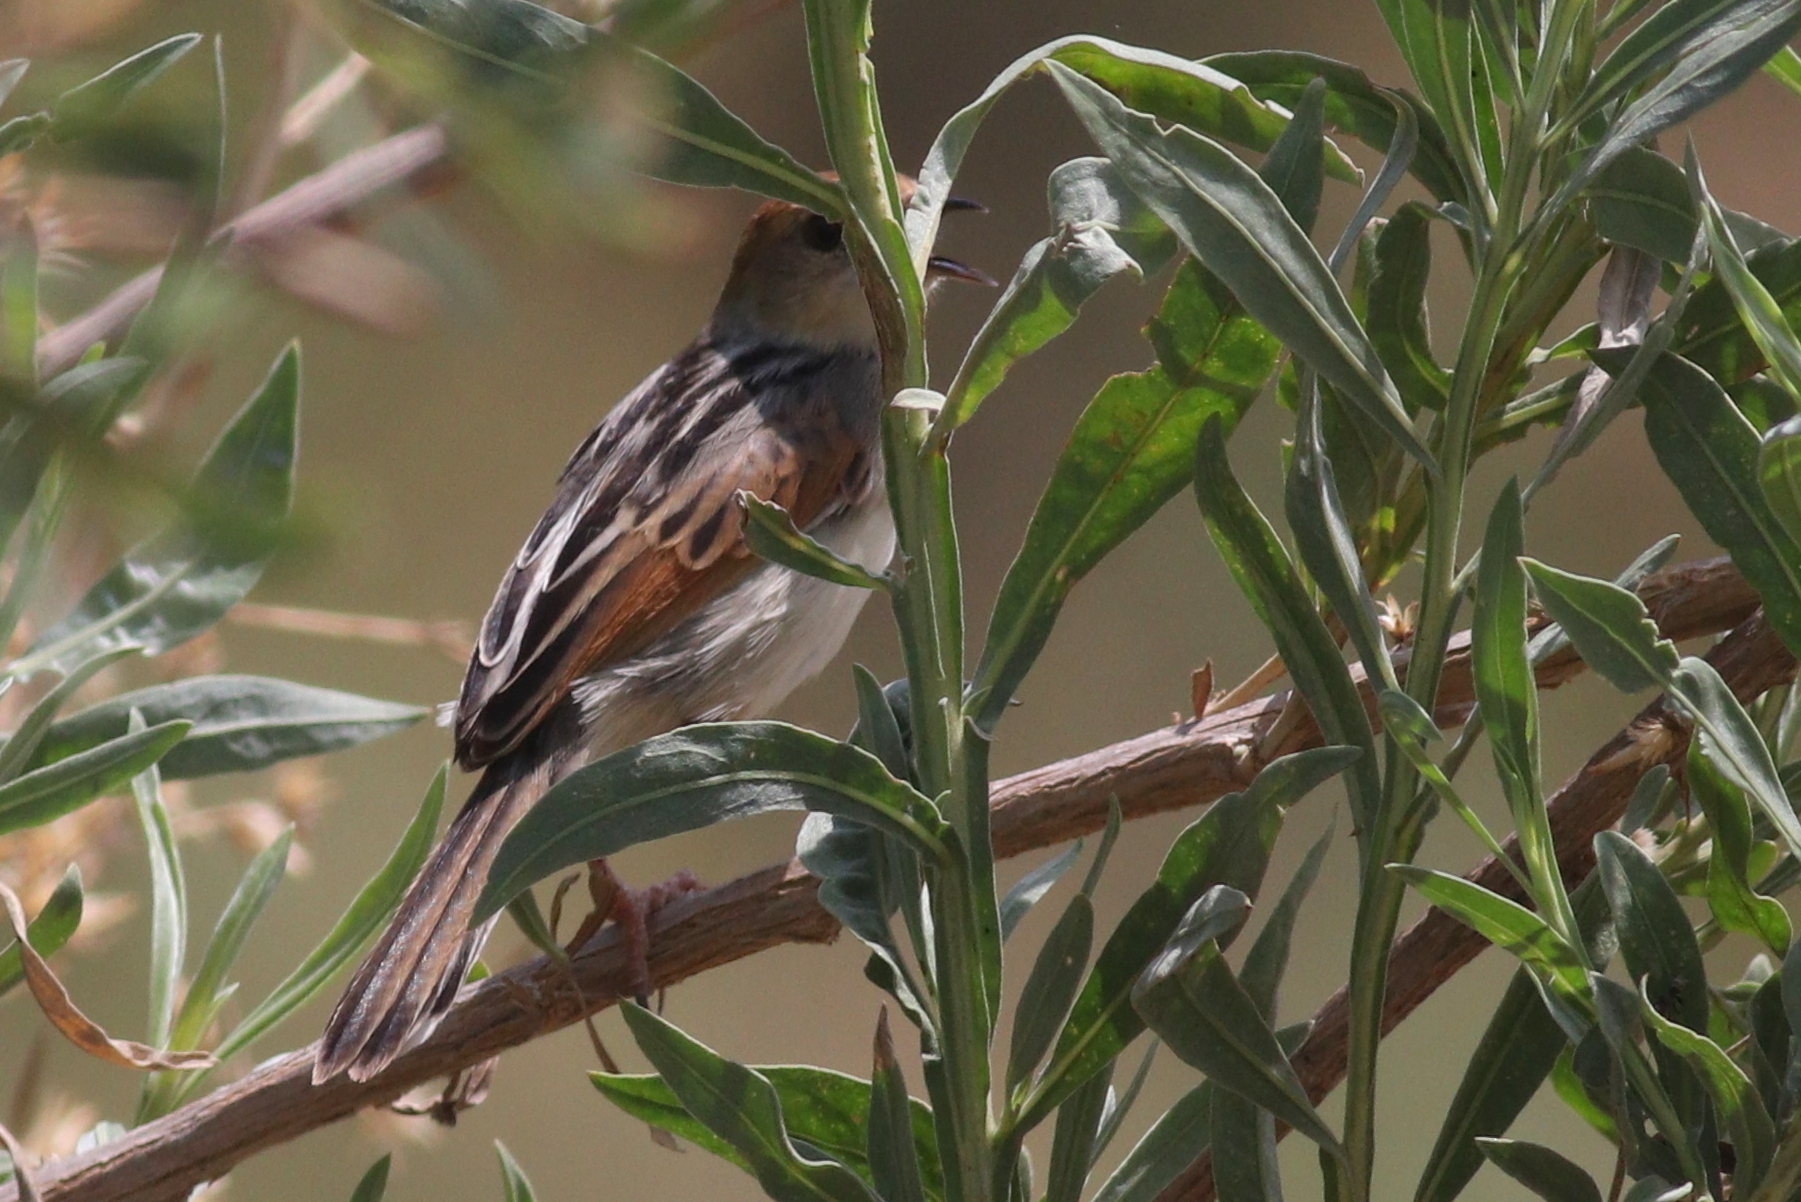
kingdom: Animalia
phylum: Chordata
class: Aves
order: Passeriformes
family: Cisticolidae
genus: Cisticola
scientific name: Cisticola luapula
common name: Luapula cisticola
